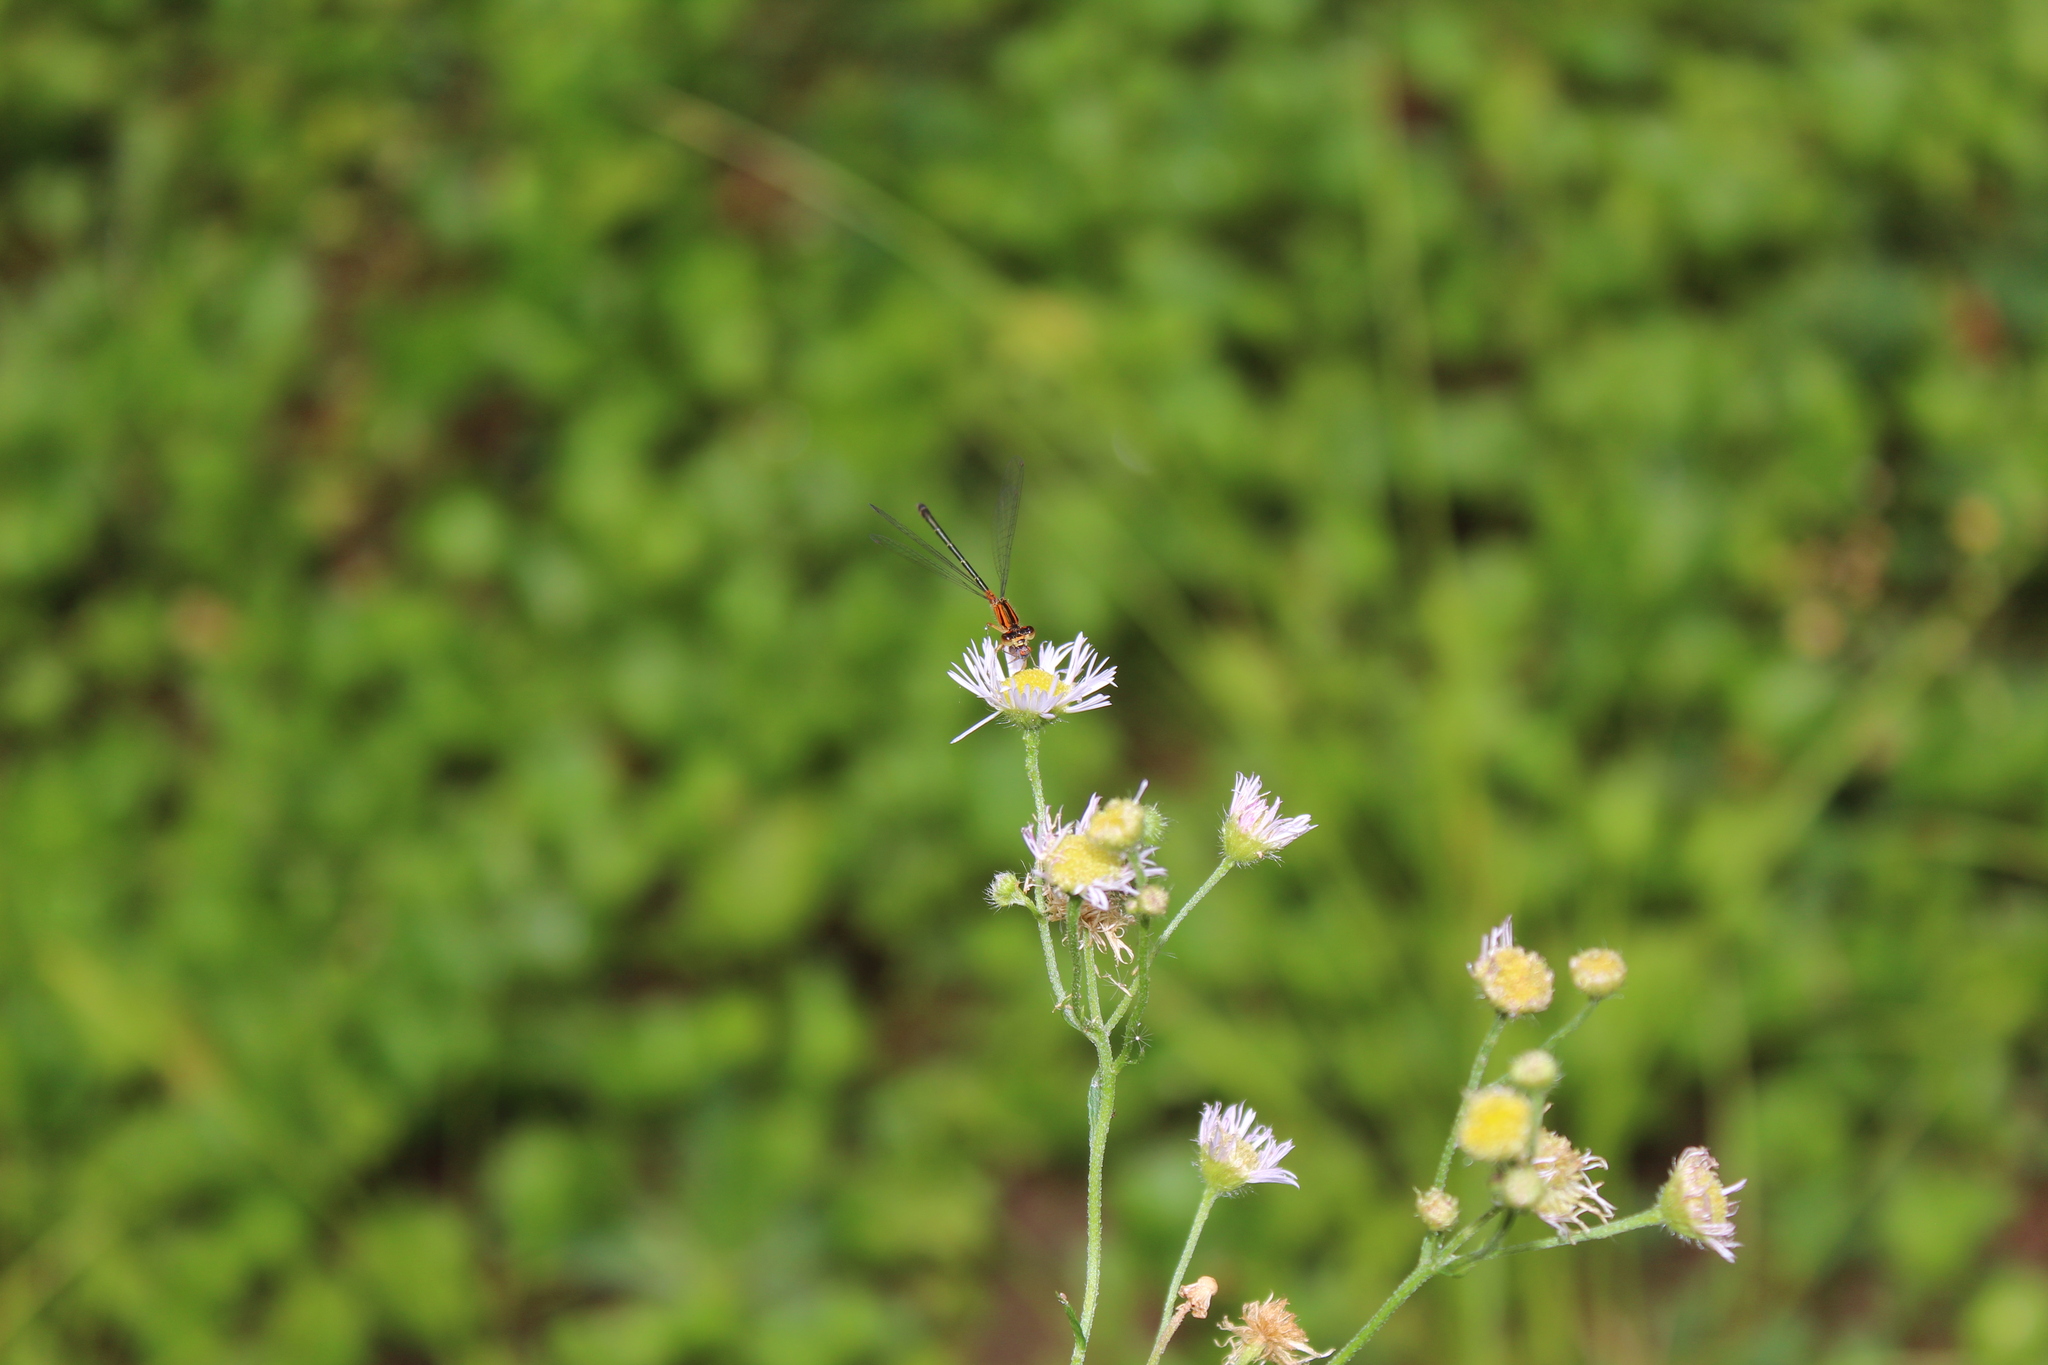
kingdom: Animalia
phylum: Arthropoda
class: Insecta
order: Odonata
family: Coenagrionidae
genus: Ischnura
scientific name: Ischnura verticalis
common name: Eastern forktail
